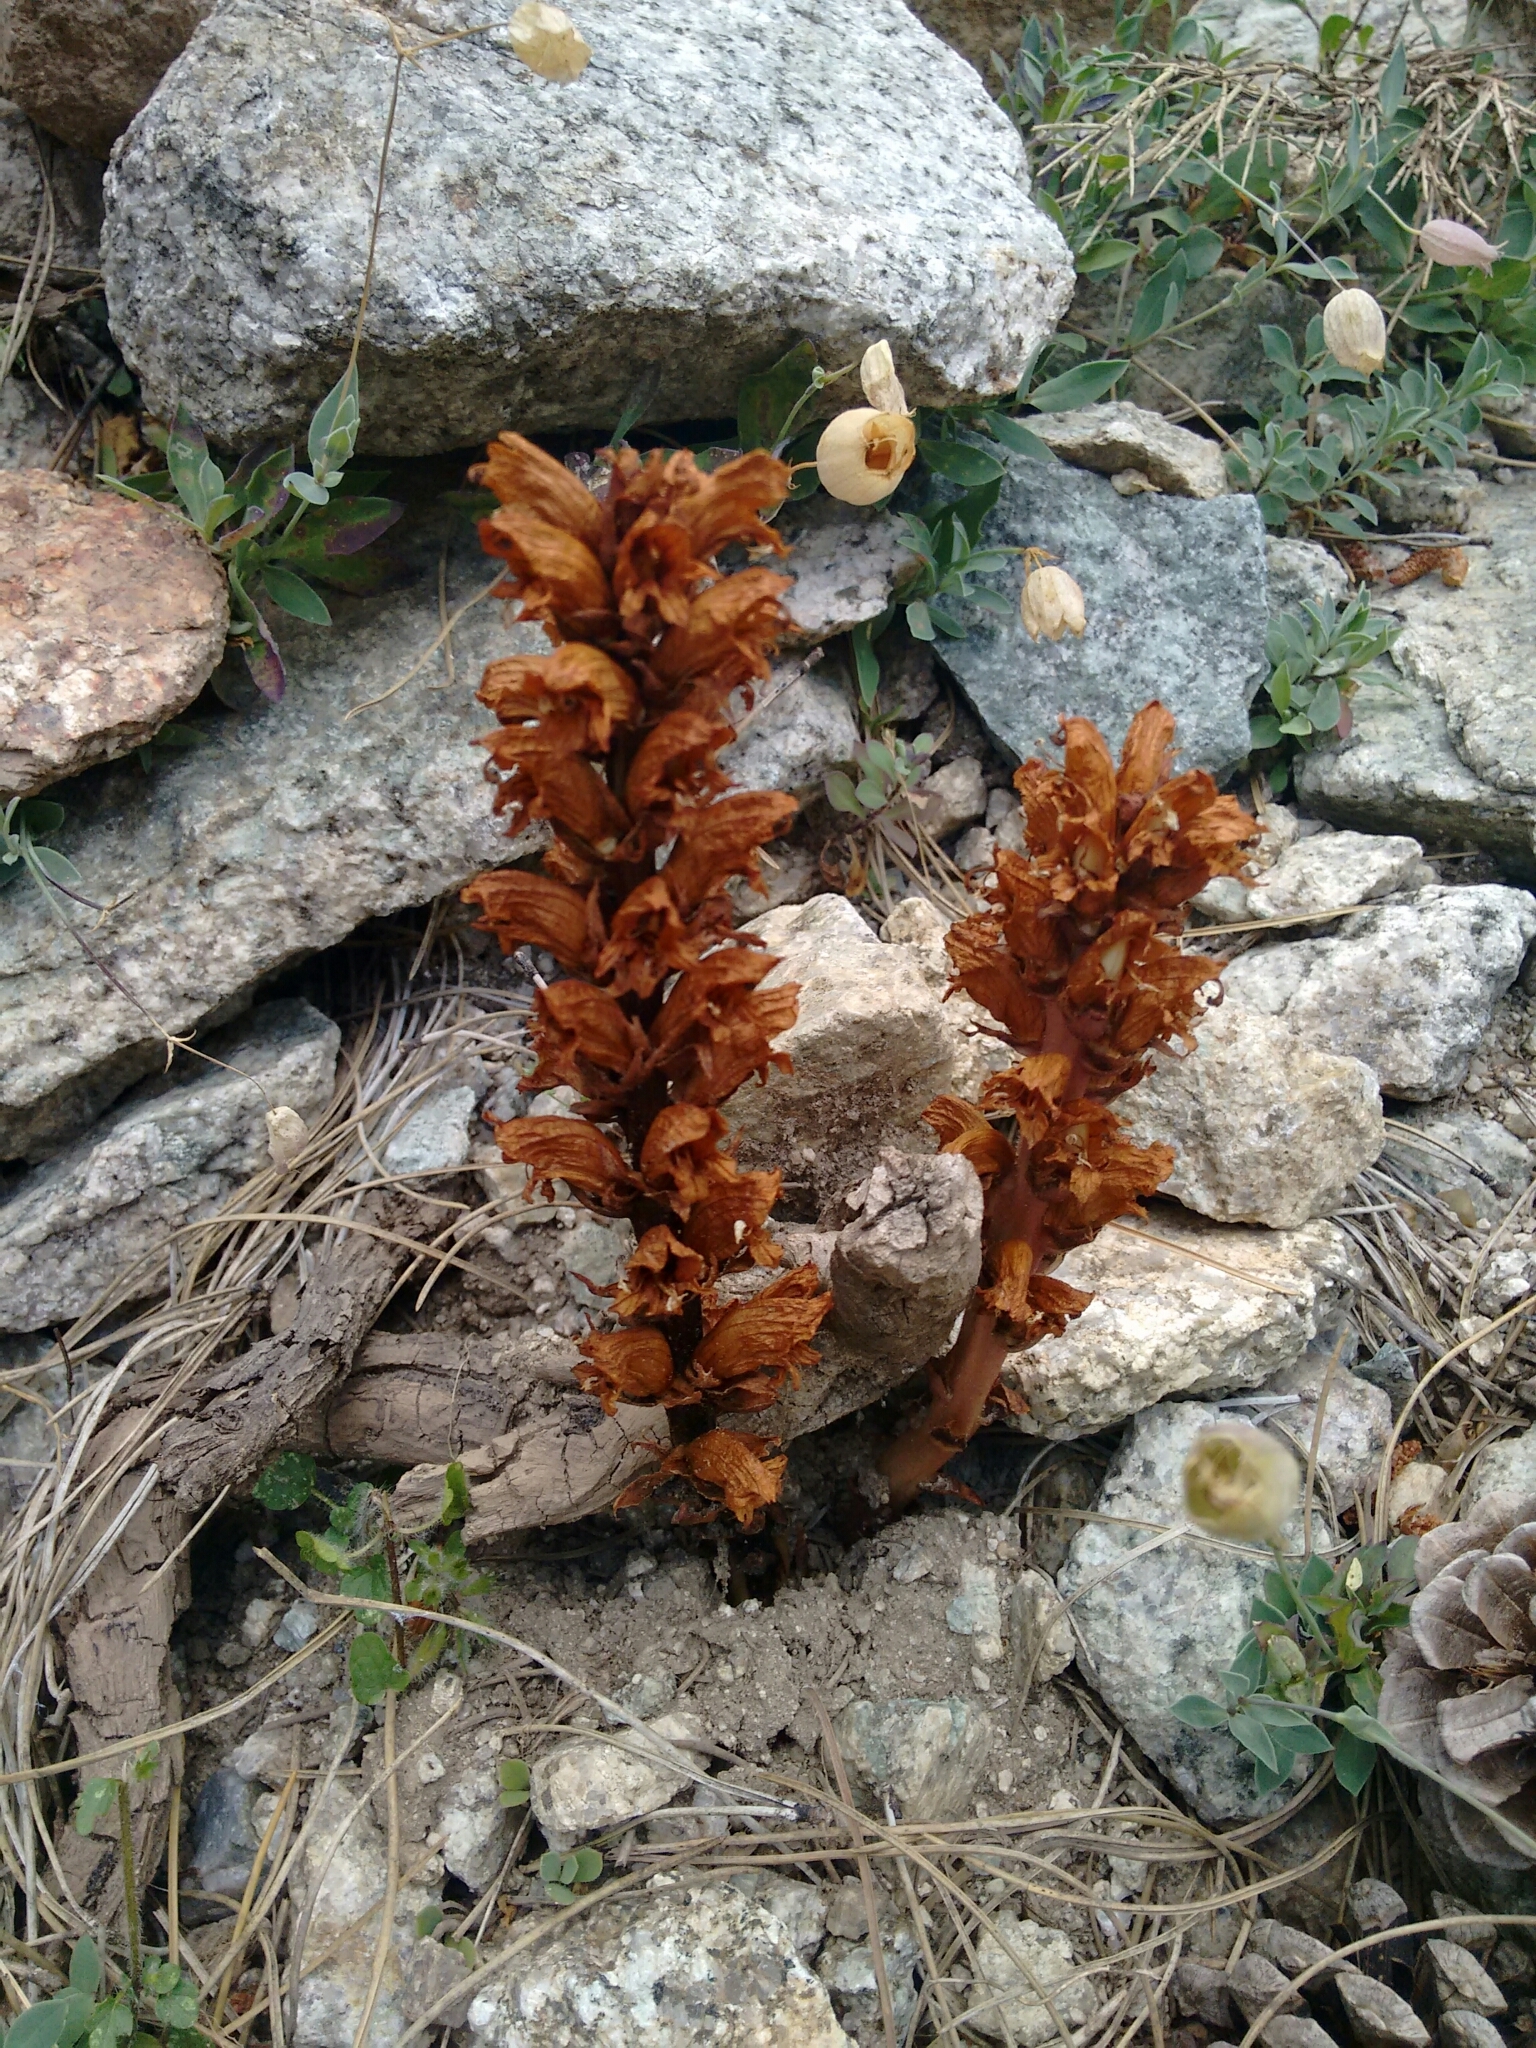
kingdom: Plantae
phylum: Tracheophyta
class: Magnoliopsida
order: Lamiales
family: Orobanchaceae
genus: Orobanche
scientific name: Orobanche rigens
